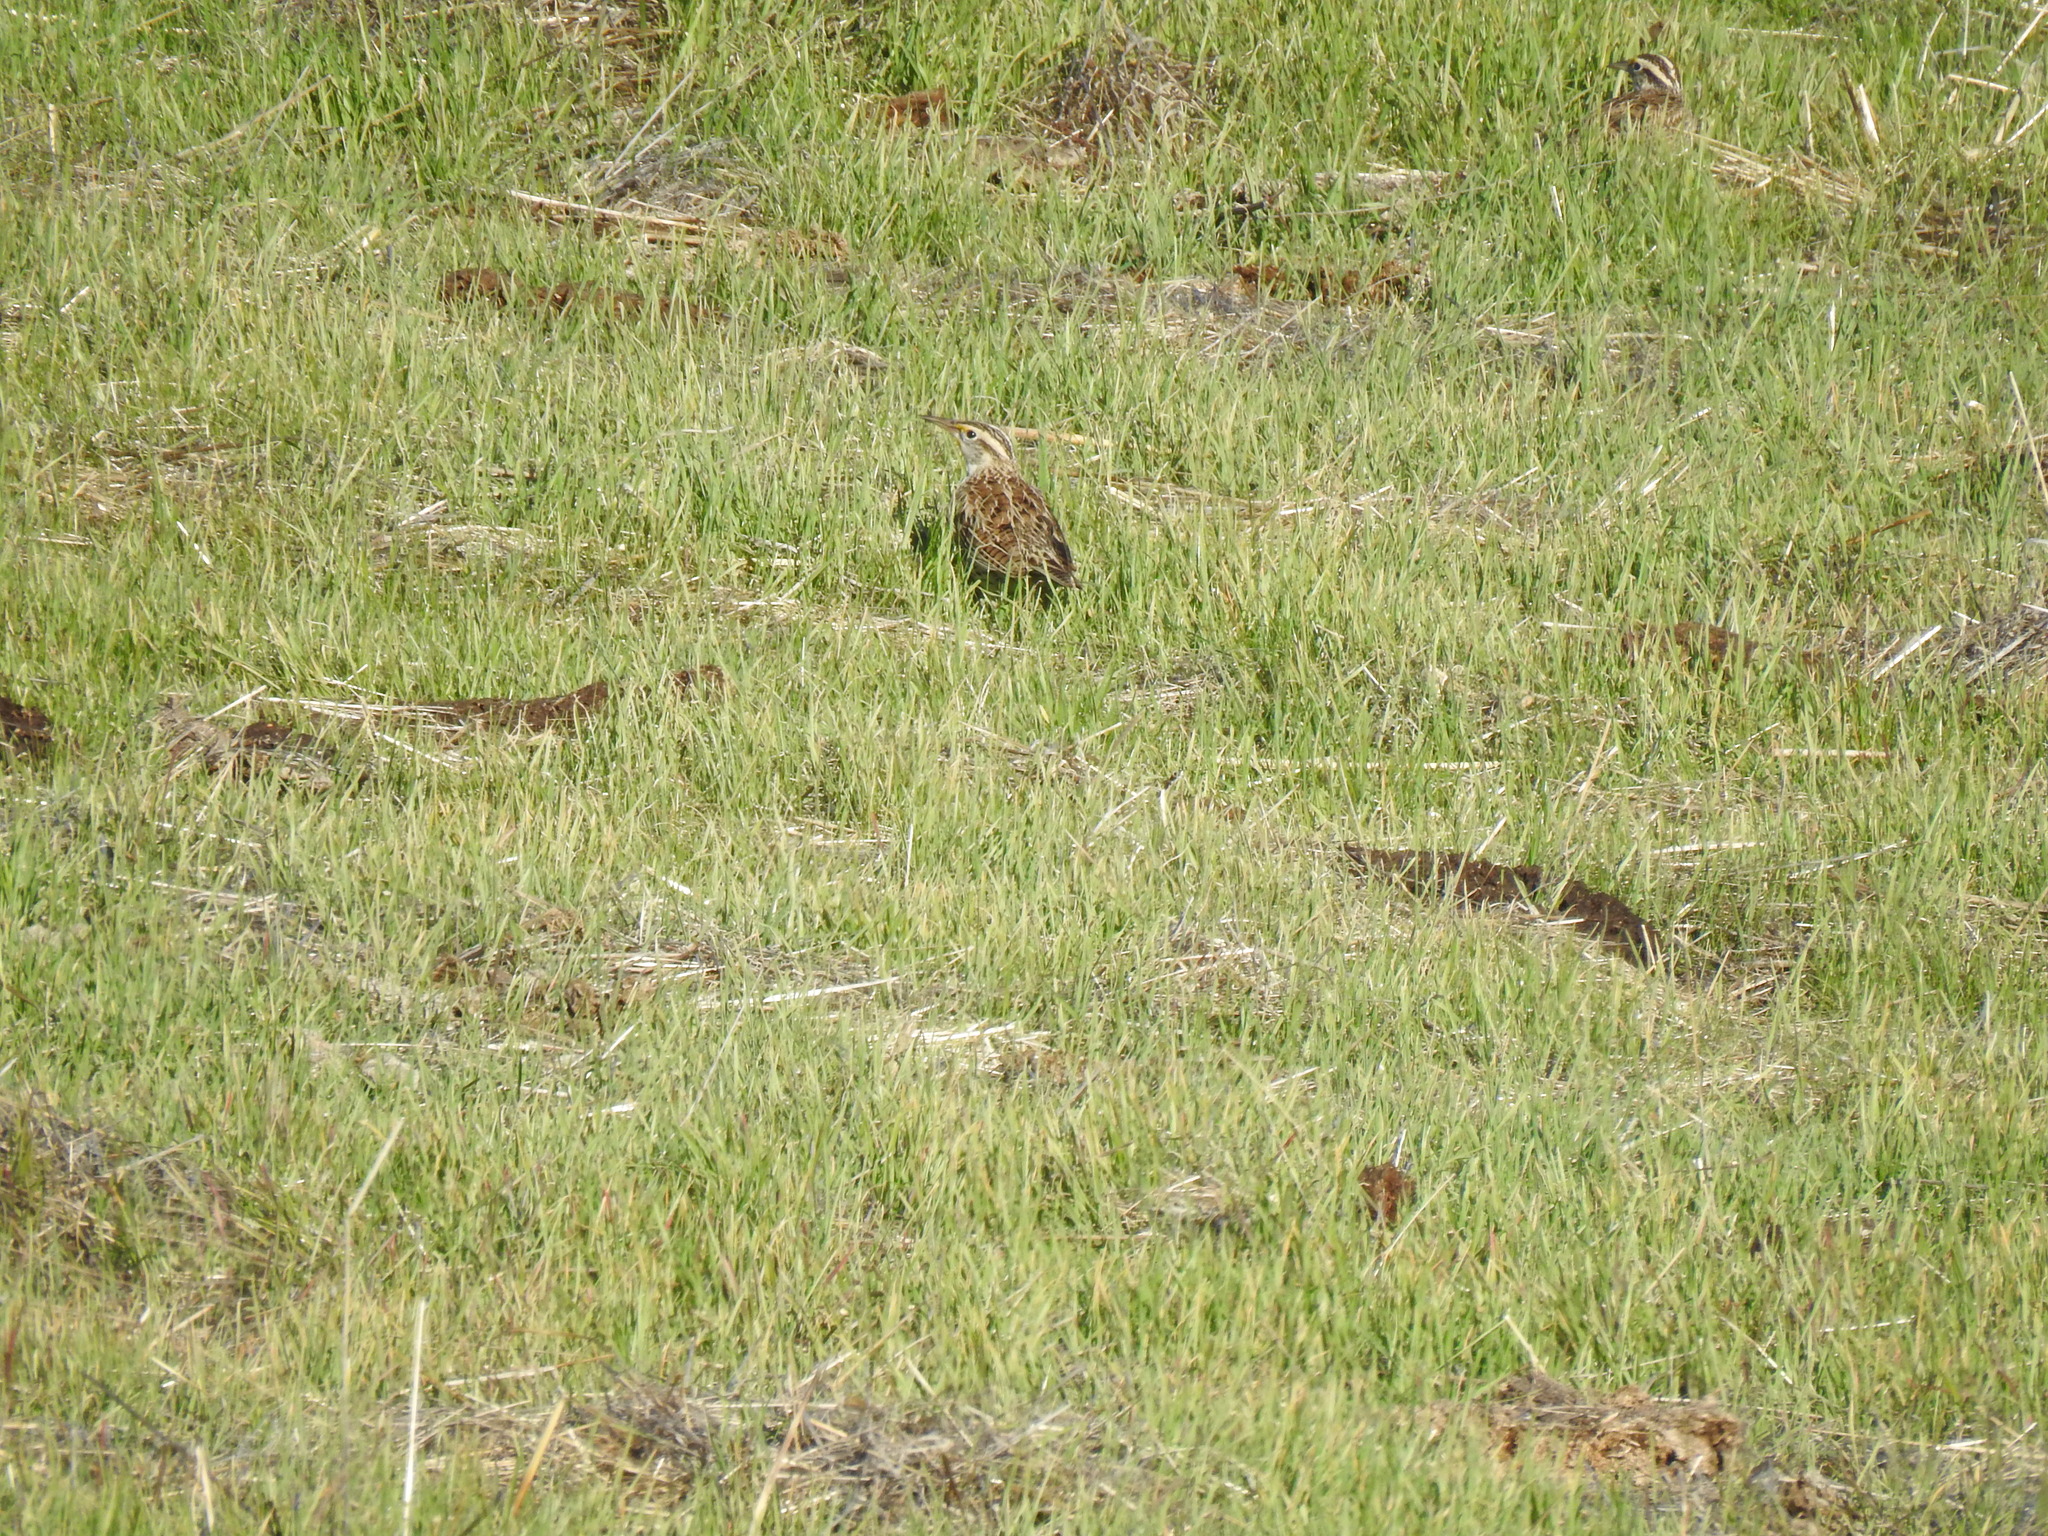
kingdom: Animalia
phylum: Chordata
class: Aves
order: Passeriformes
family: Icteridae
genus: Sturnella
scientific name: Sturnella neglecta
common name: Western meadowlark
